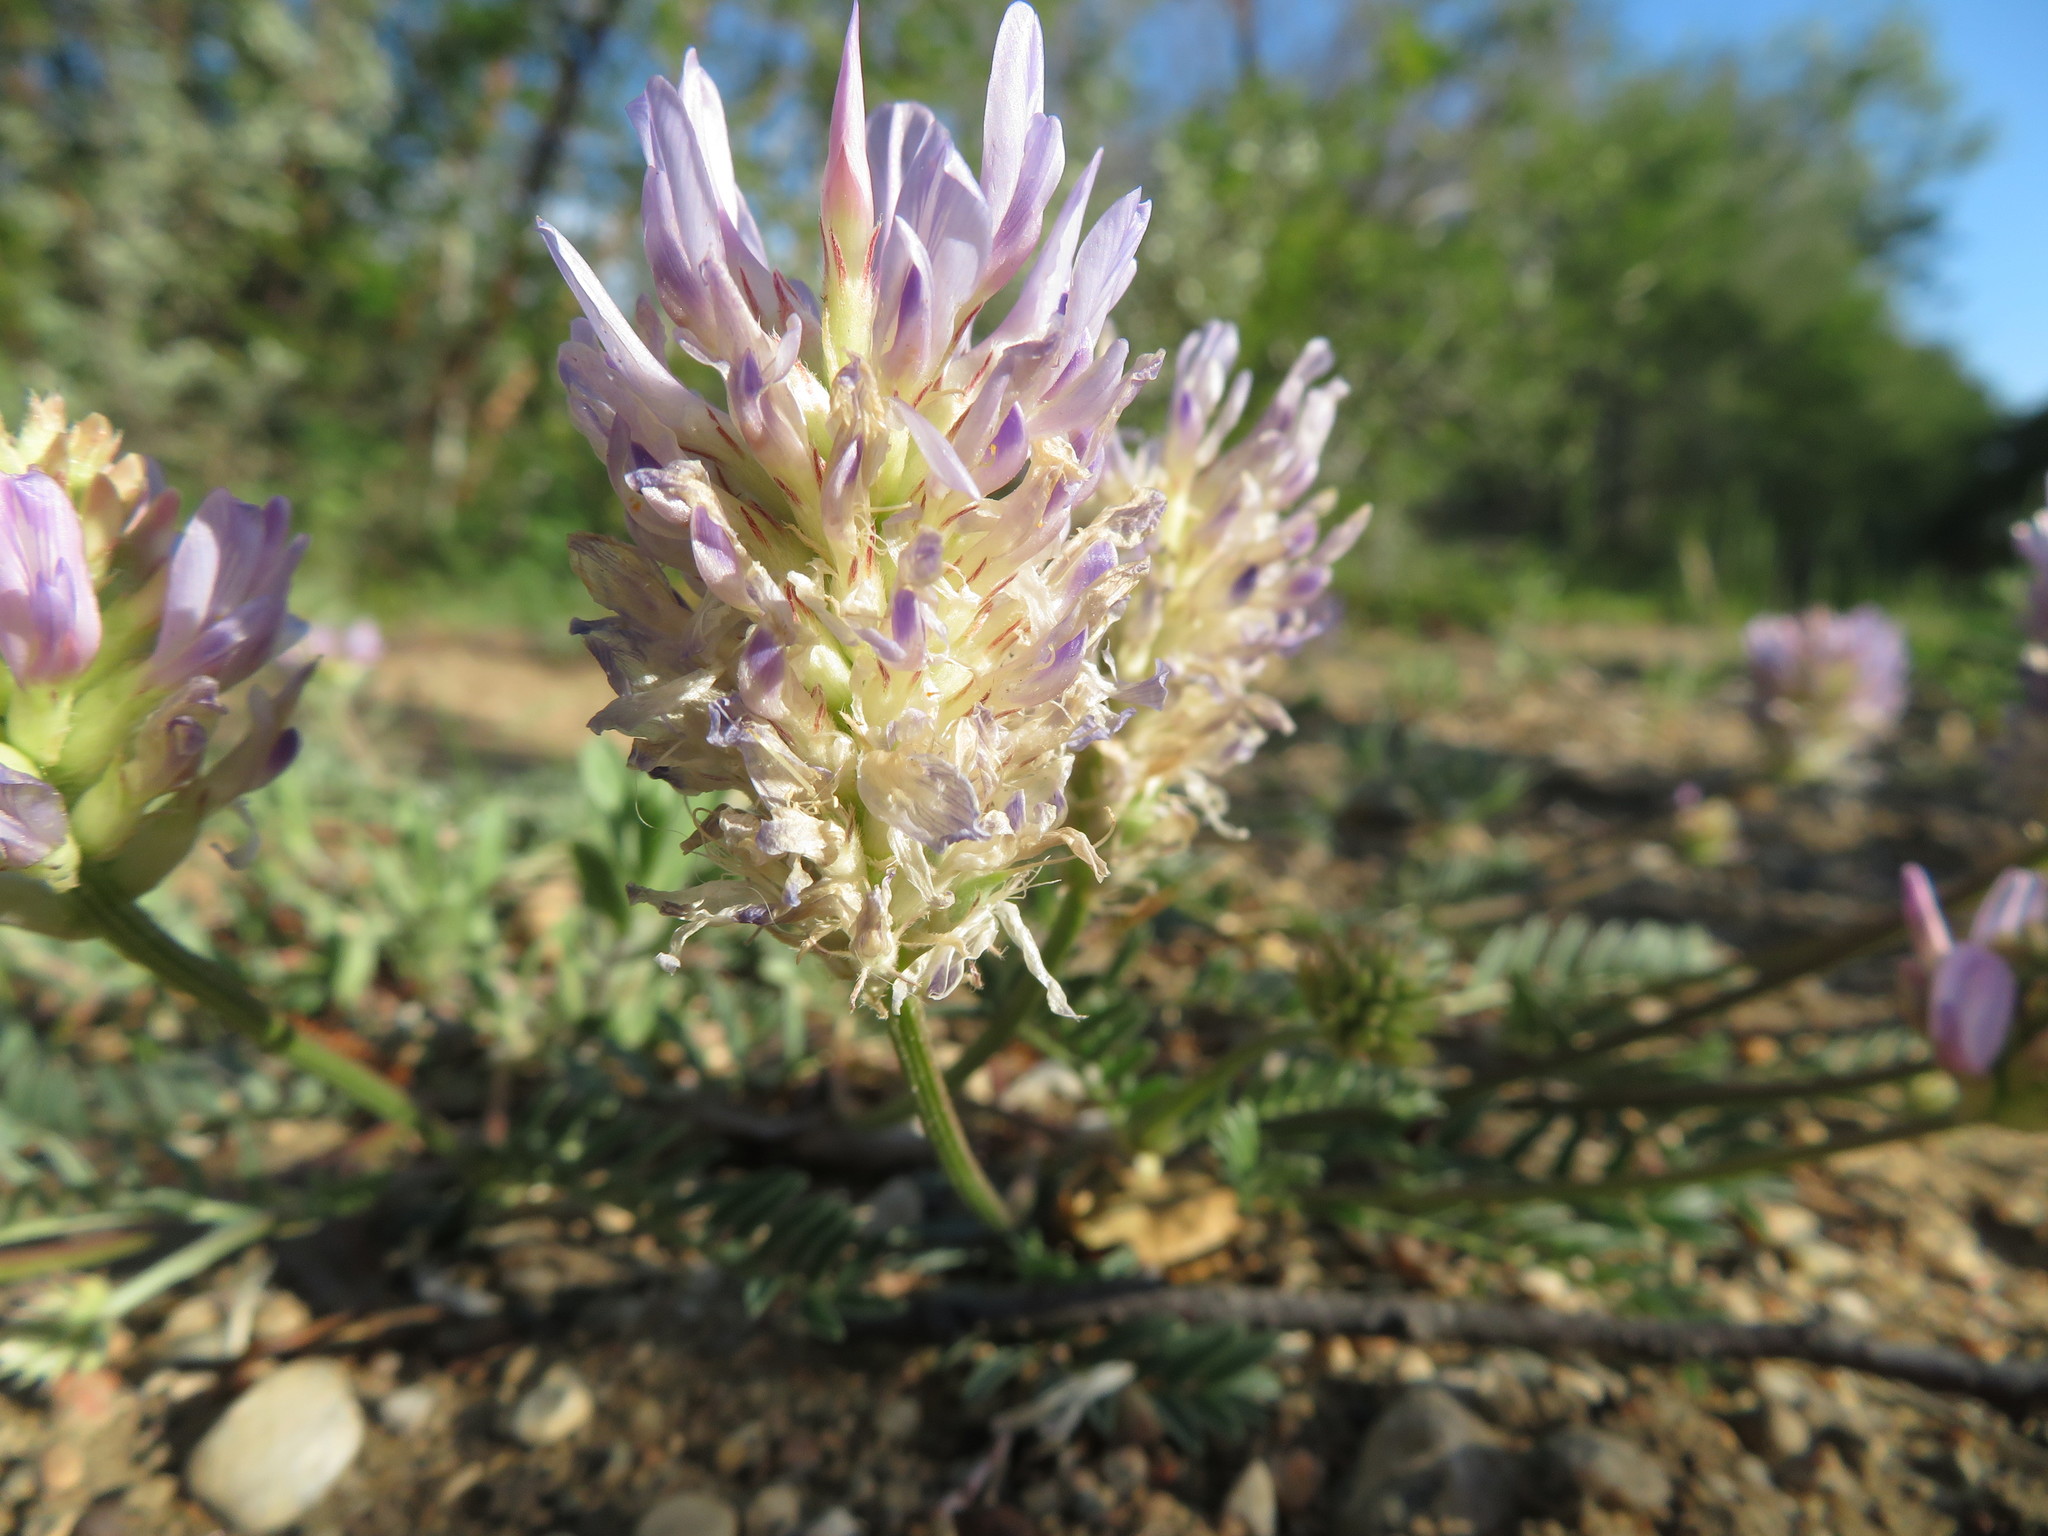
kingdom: Plantae
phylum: Tracheophyta
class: Magnoliopsida
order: Fabales
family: Fabaceae
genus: Astragalus
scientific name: Astragalus laxmannii
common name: Laxmann's milk-vetch
